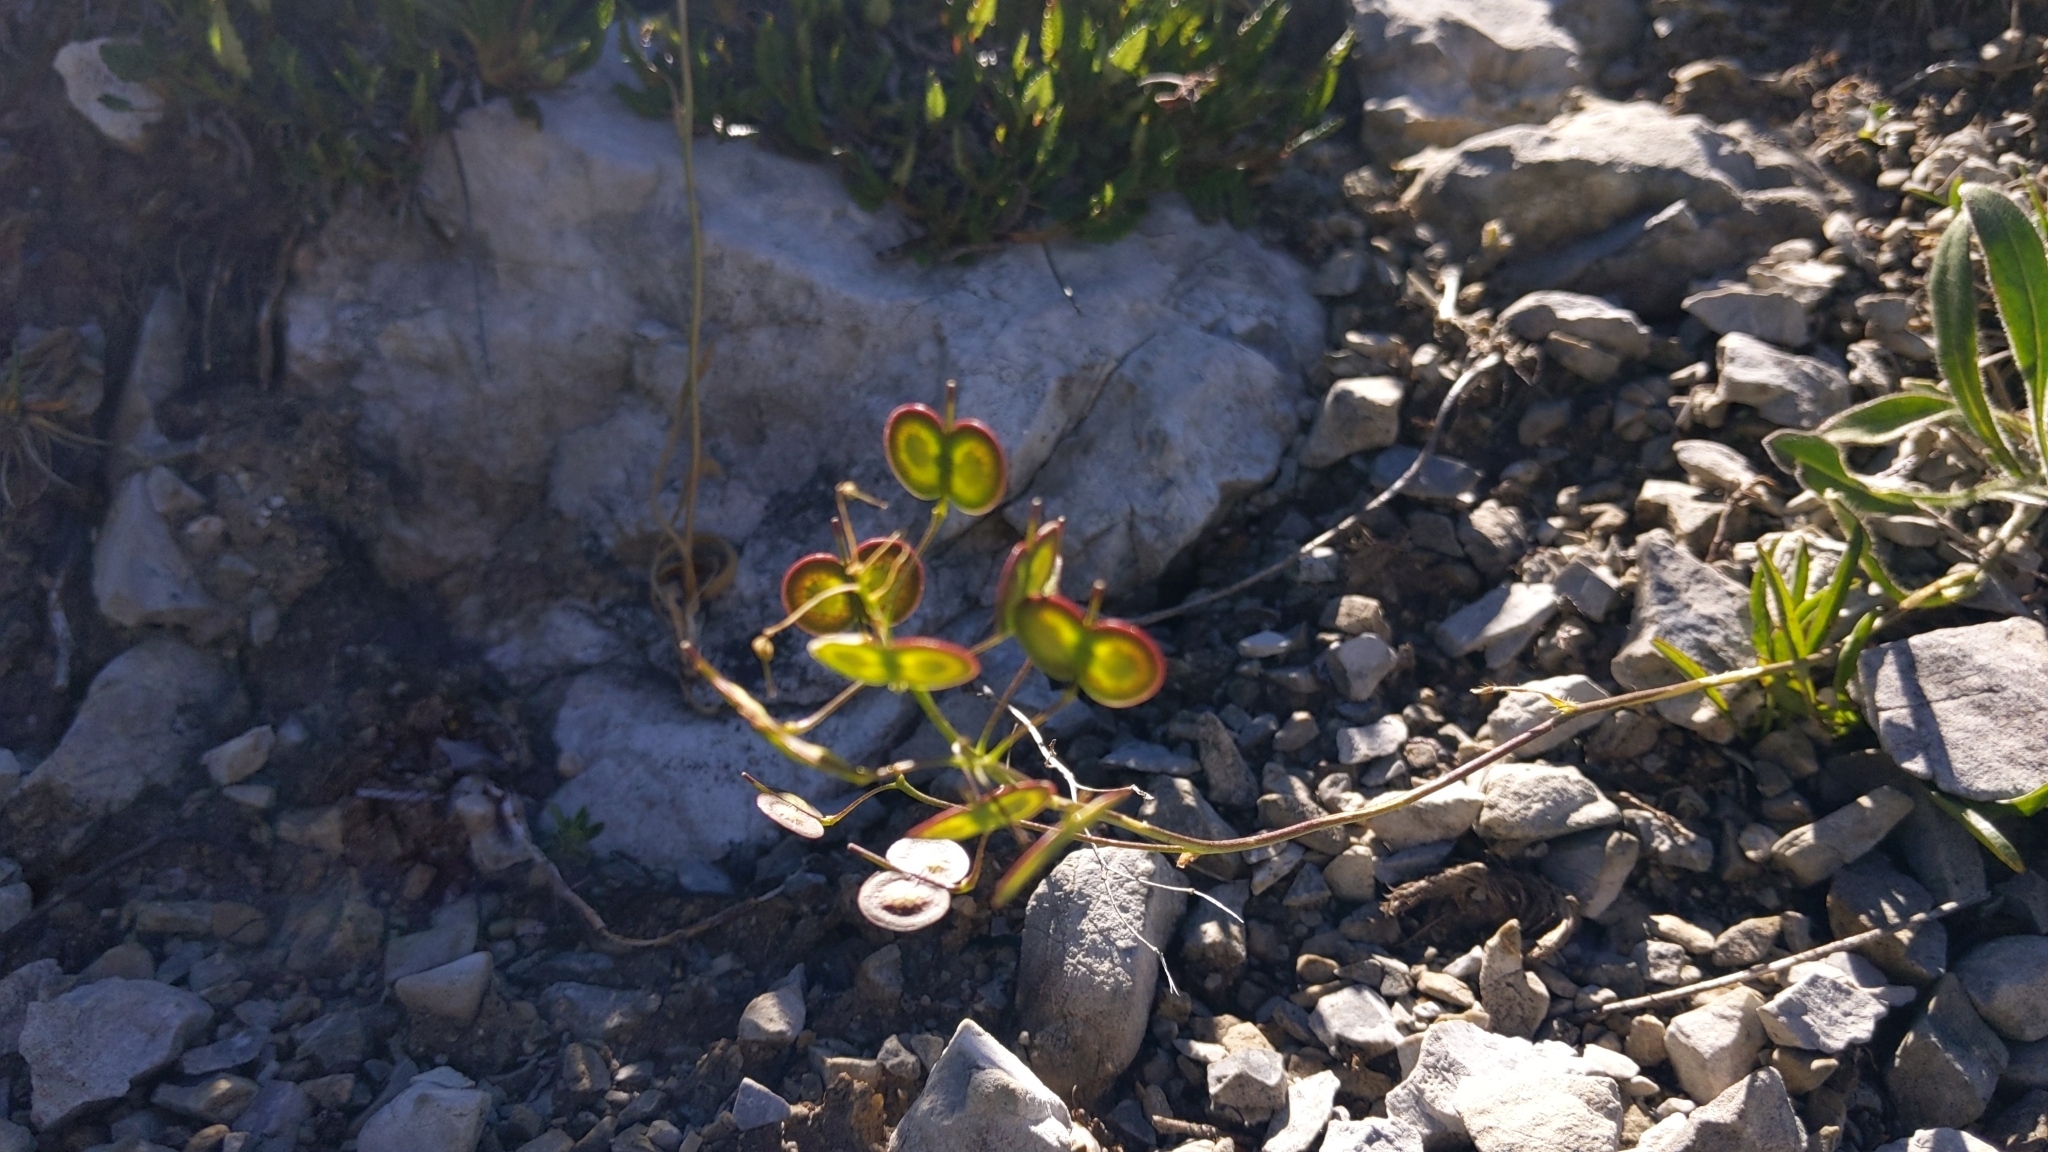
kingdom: Plantae
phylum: Tracheophyta
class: Magnoliopsida
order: Brassicales
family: Brassicaceae
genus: Biscutella
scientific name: Biscutella laevigata
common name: Buckler mustard
